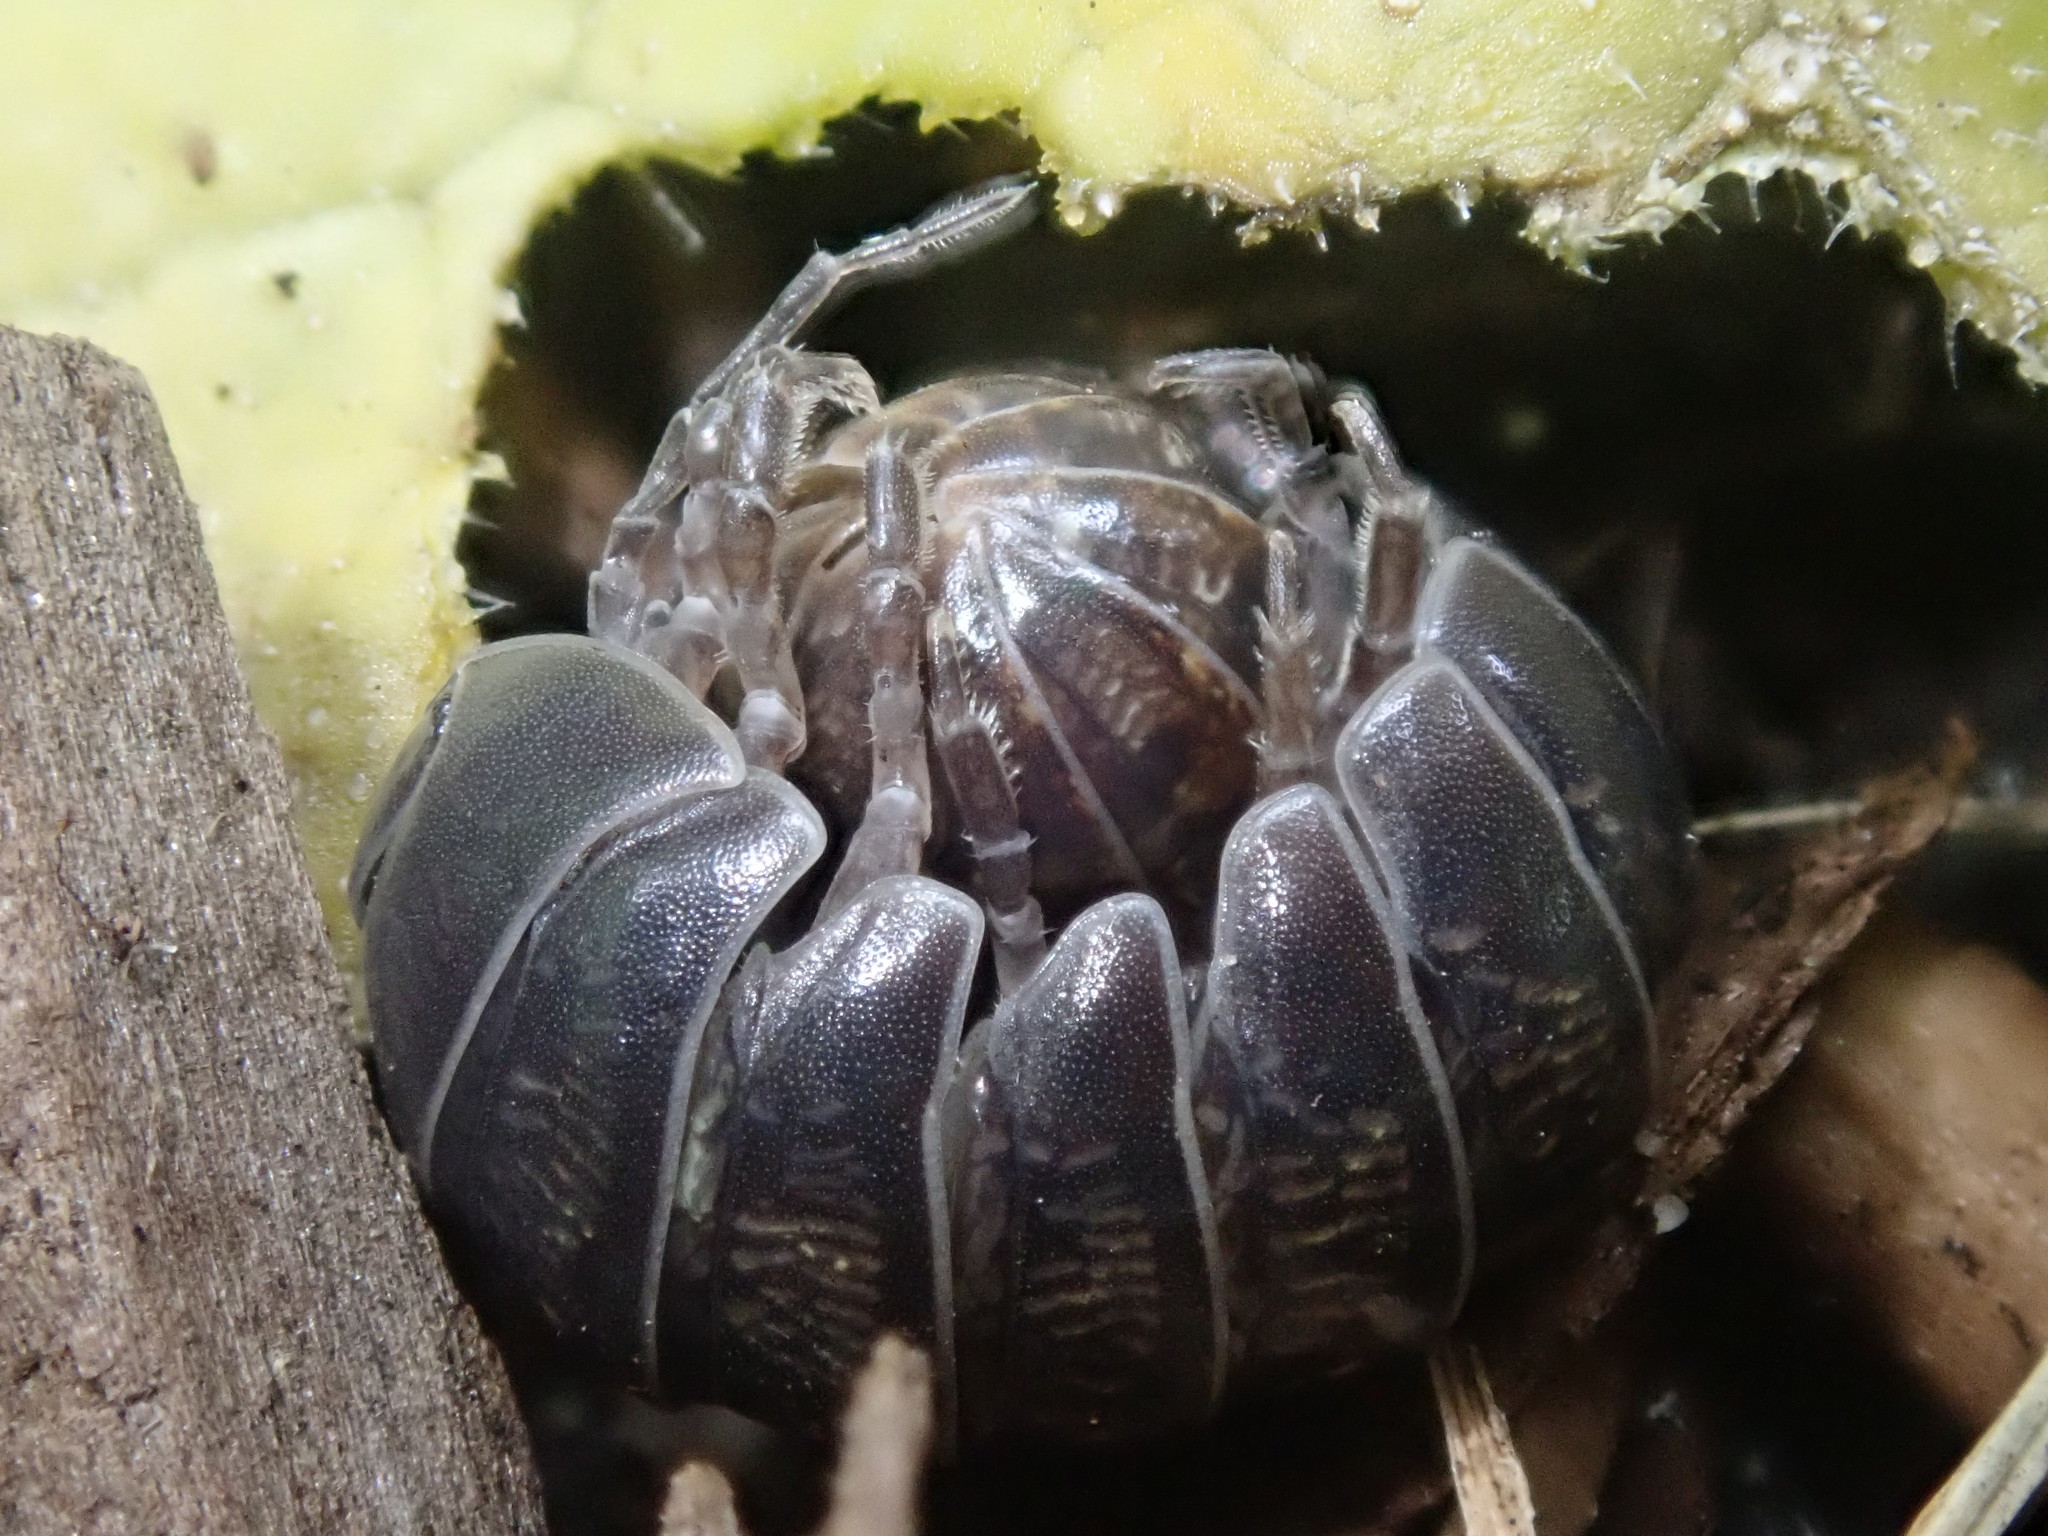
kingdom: Animalia
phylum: Arthropoda
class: Malacostraca
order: Isopoda
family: Armadillidiidae
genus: Armadillidium
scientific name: Armadillidium vulgare
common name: Common pill woodlouse
